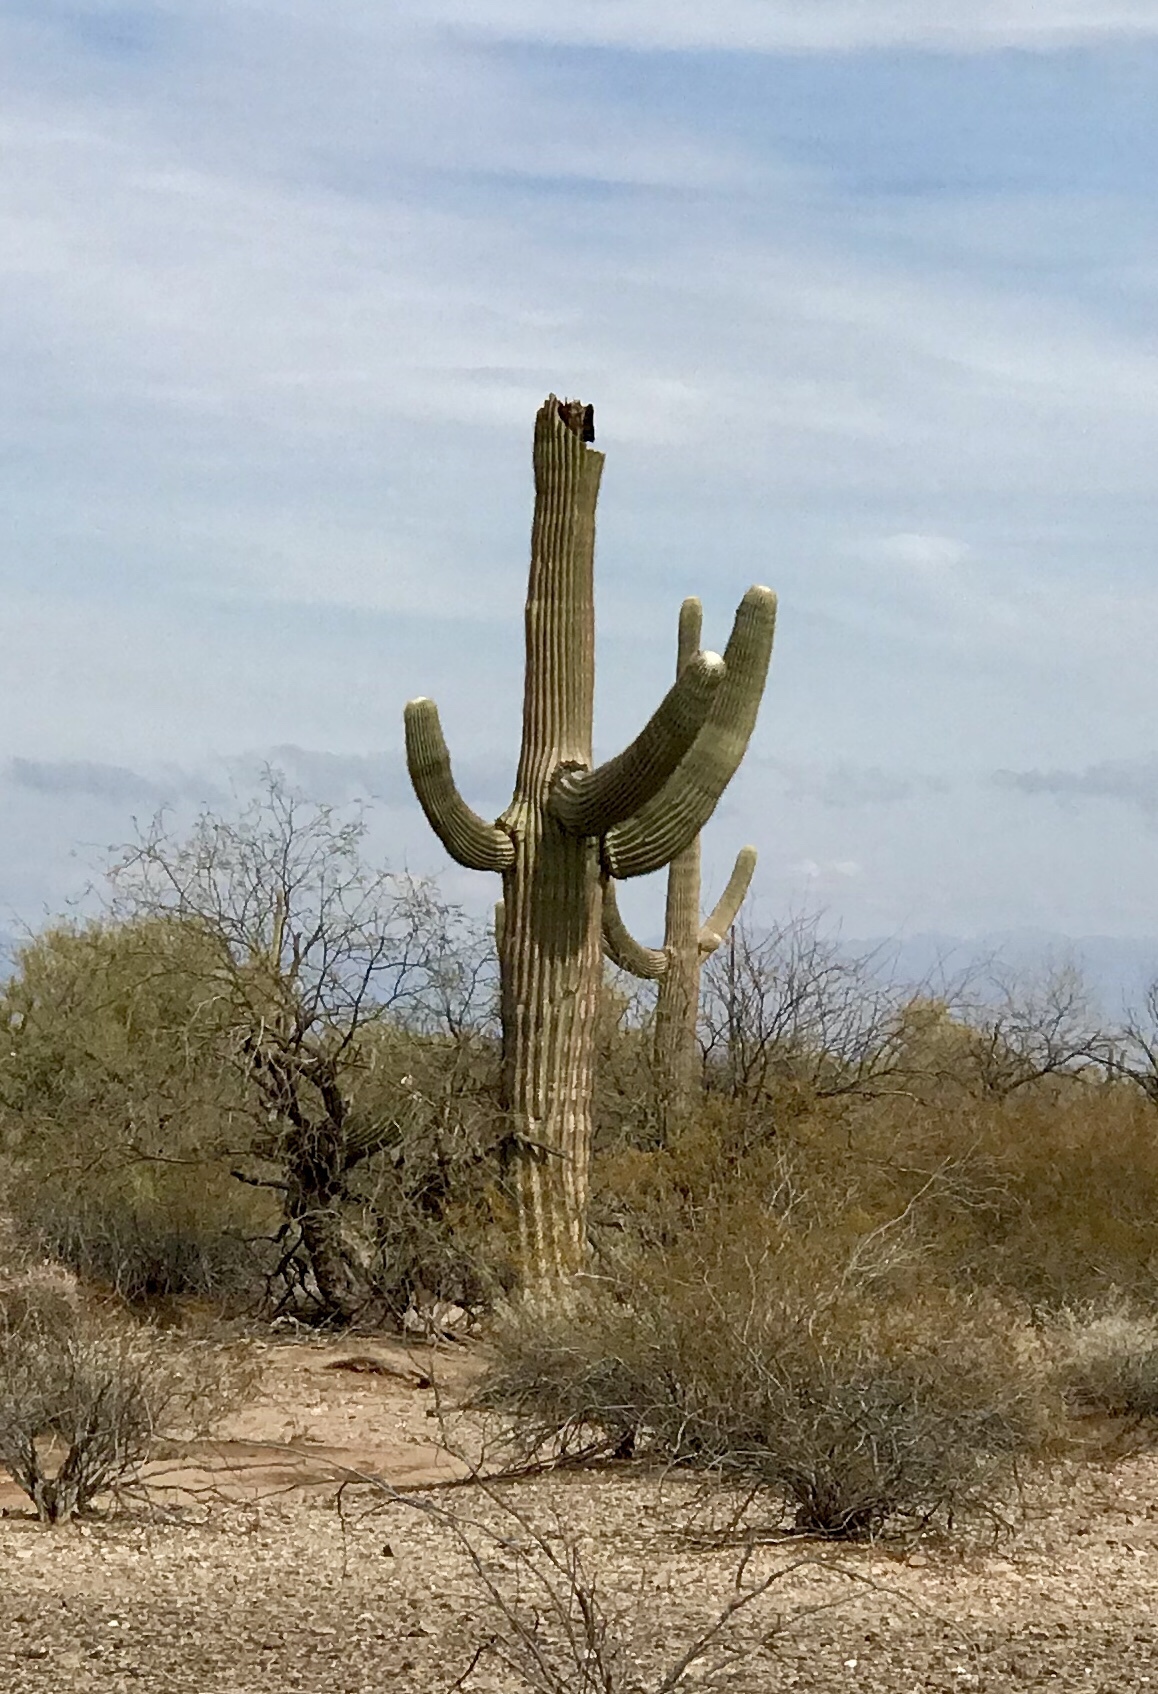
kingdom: Plantae
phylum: Tracheophyta
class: Magnoliopsida
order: Caryophyllales
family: Cactaceae
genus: Carnegiea
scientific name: Carnegiea gigantea
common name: Saguaro
